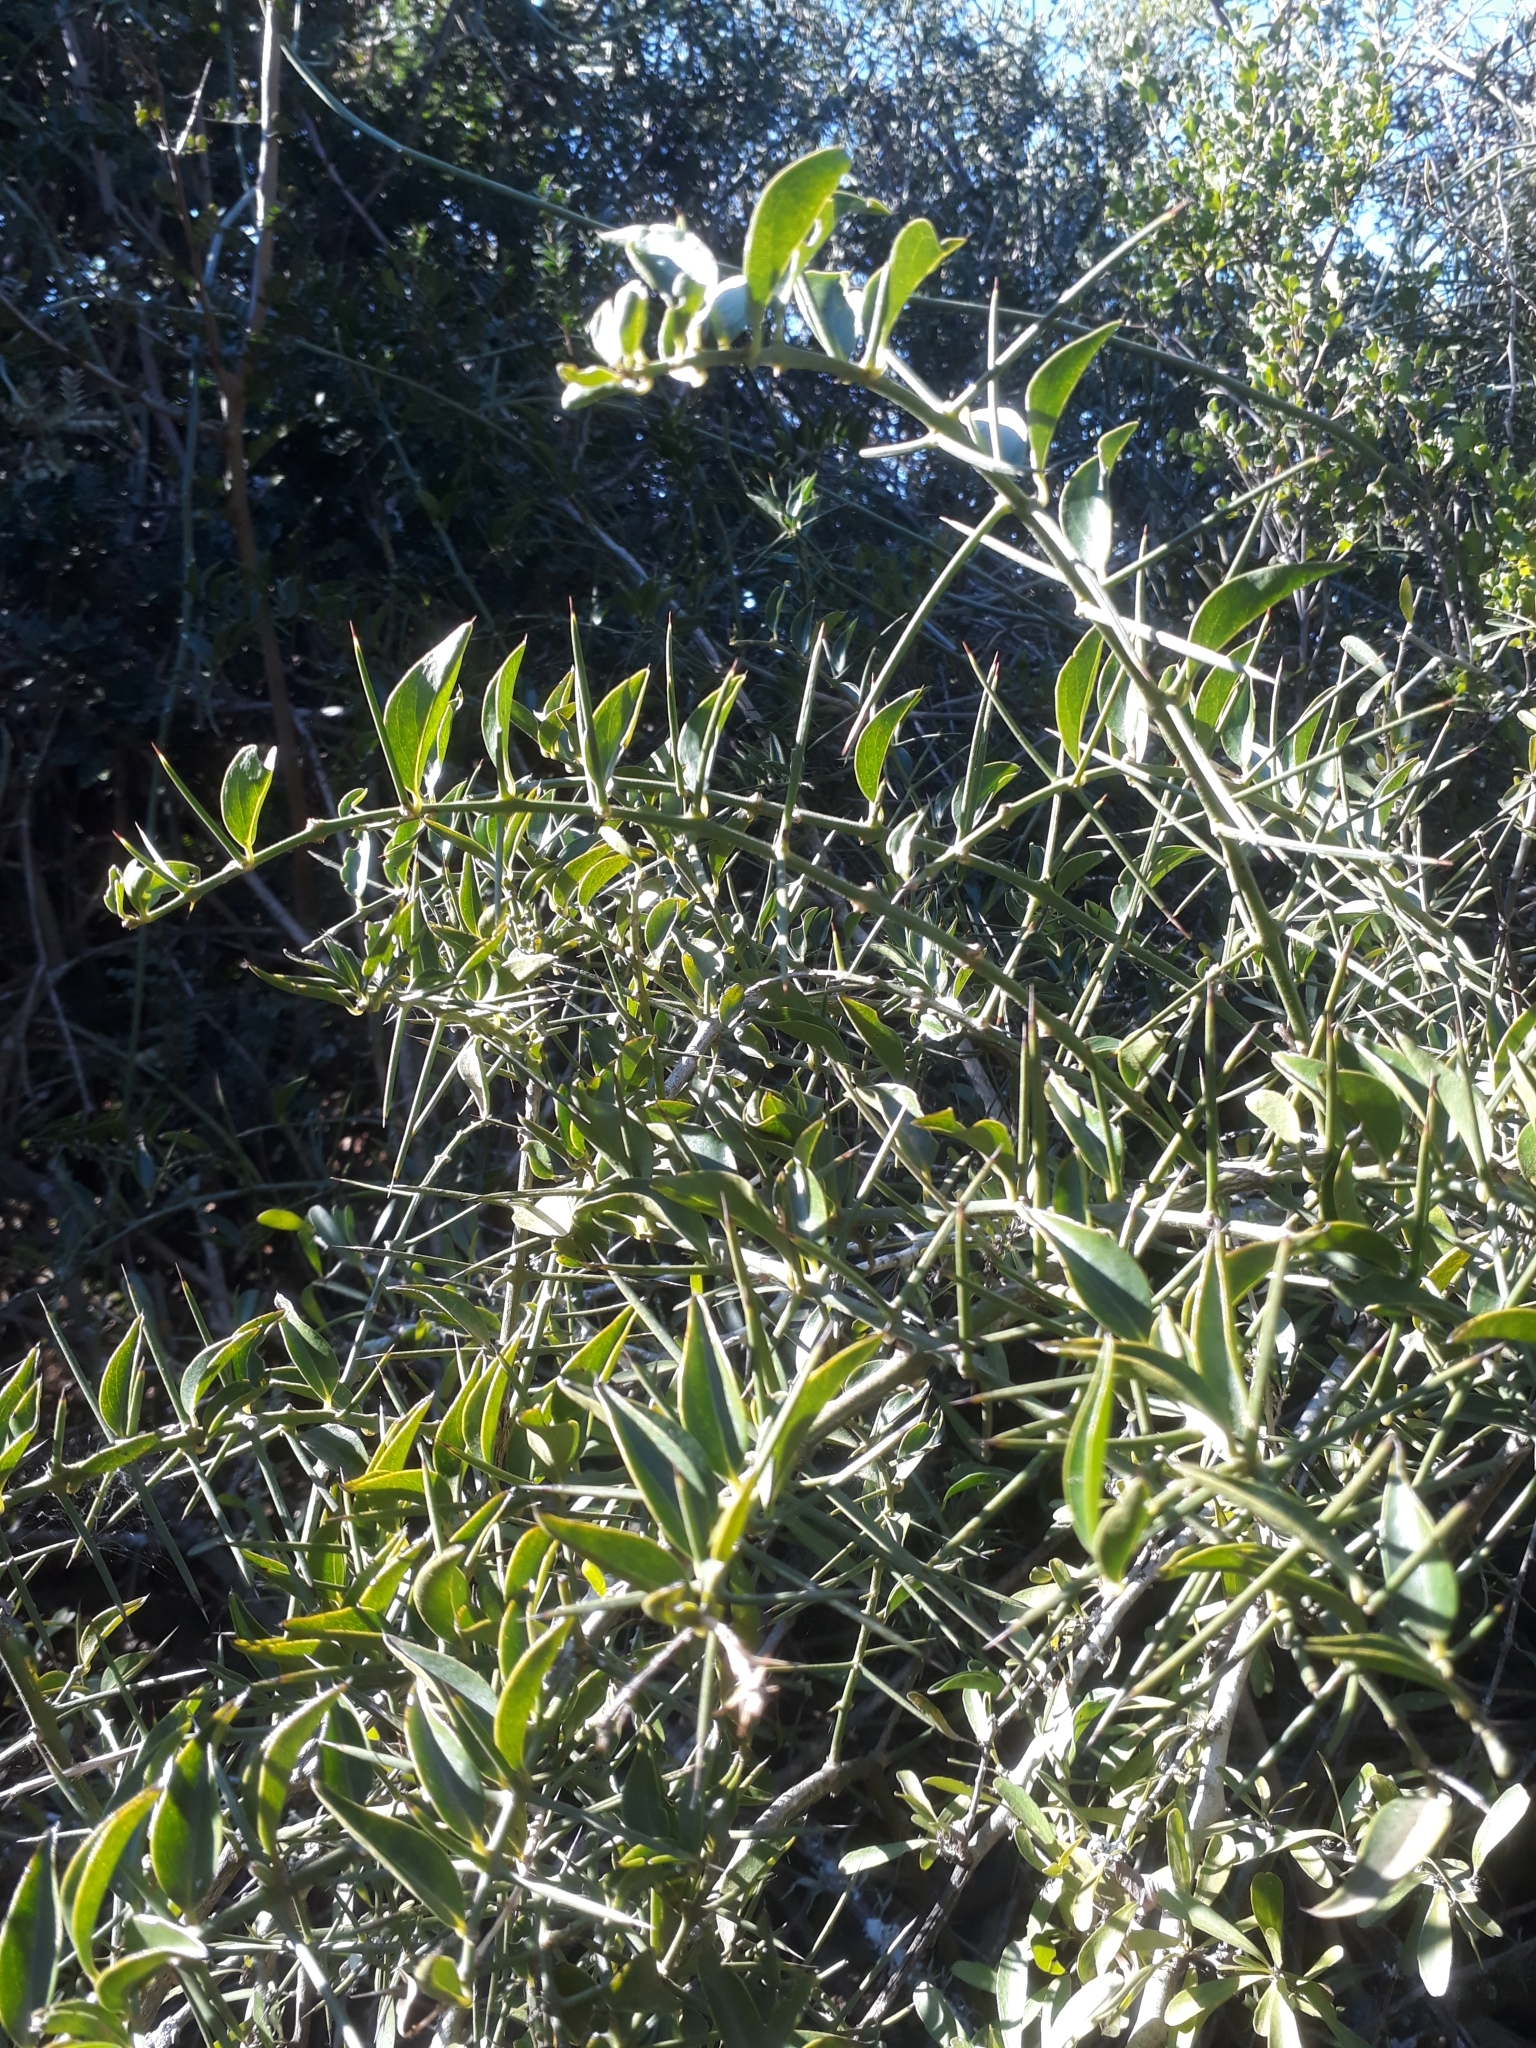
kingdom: Plantae
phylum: Tracheophyta
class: Magnoliopsida
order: Brassicales
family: Salvadoraceae
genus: Azima
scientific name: Azima tetracantha
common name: Needle bush
